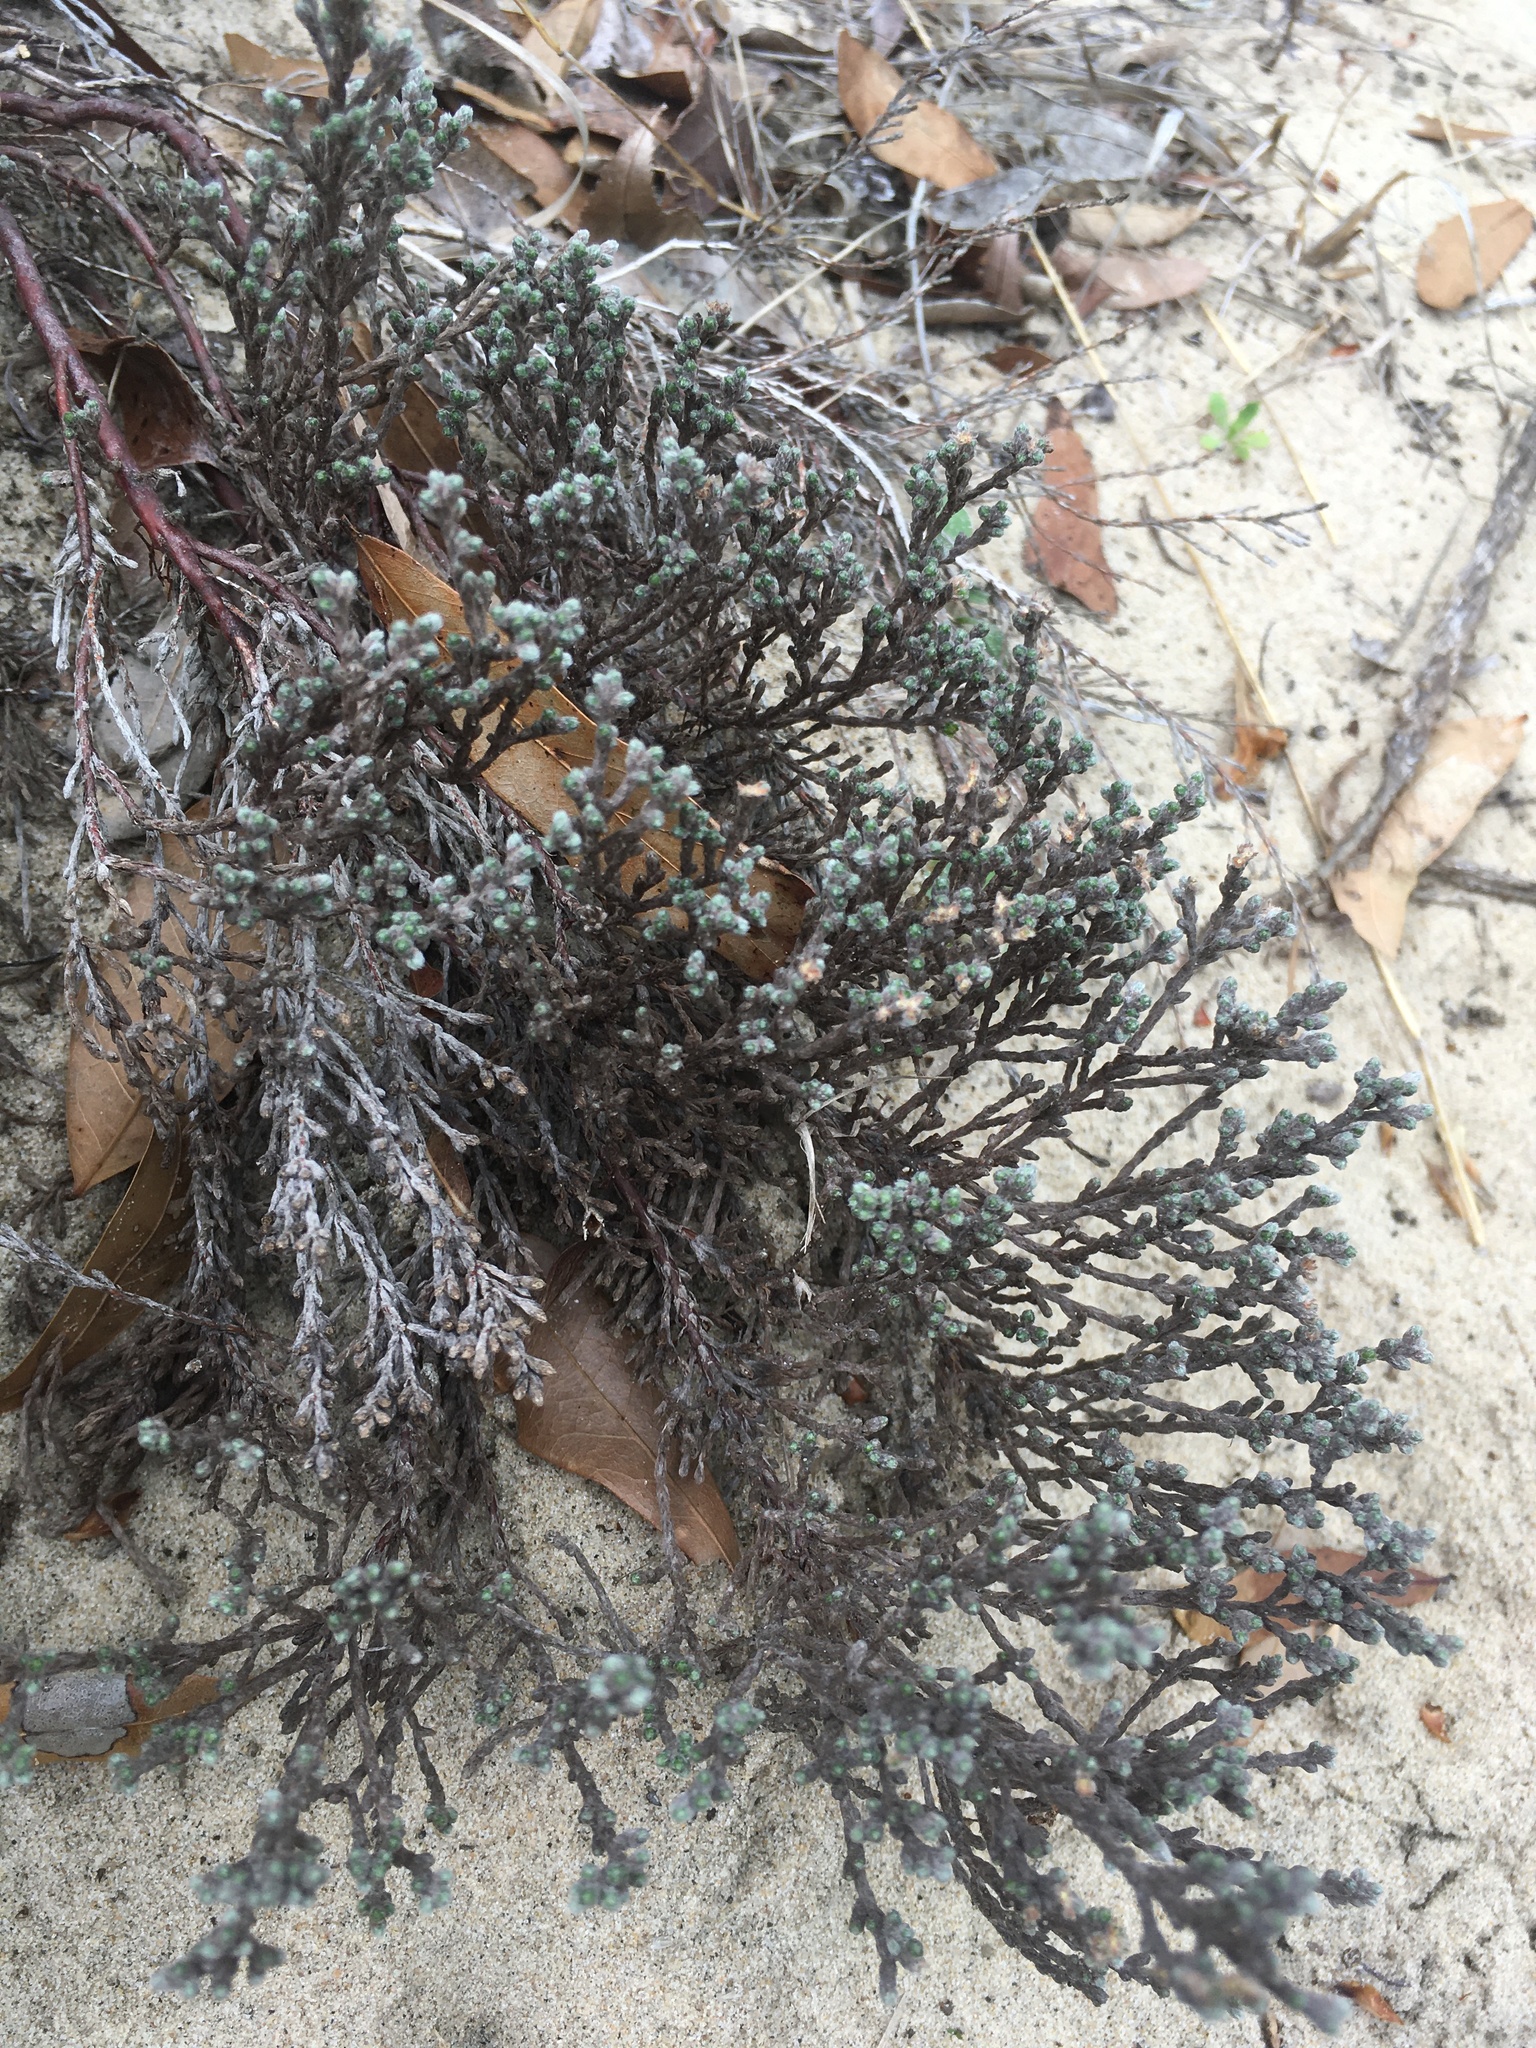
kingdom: Plantae
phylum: Tracheophyta
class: Magnoliopsida
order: Malvales
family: Cistaceae
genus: Hudsonia
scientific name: Hudsonia tomentosa
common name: Beach-heath
